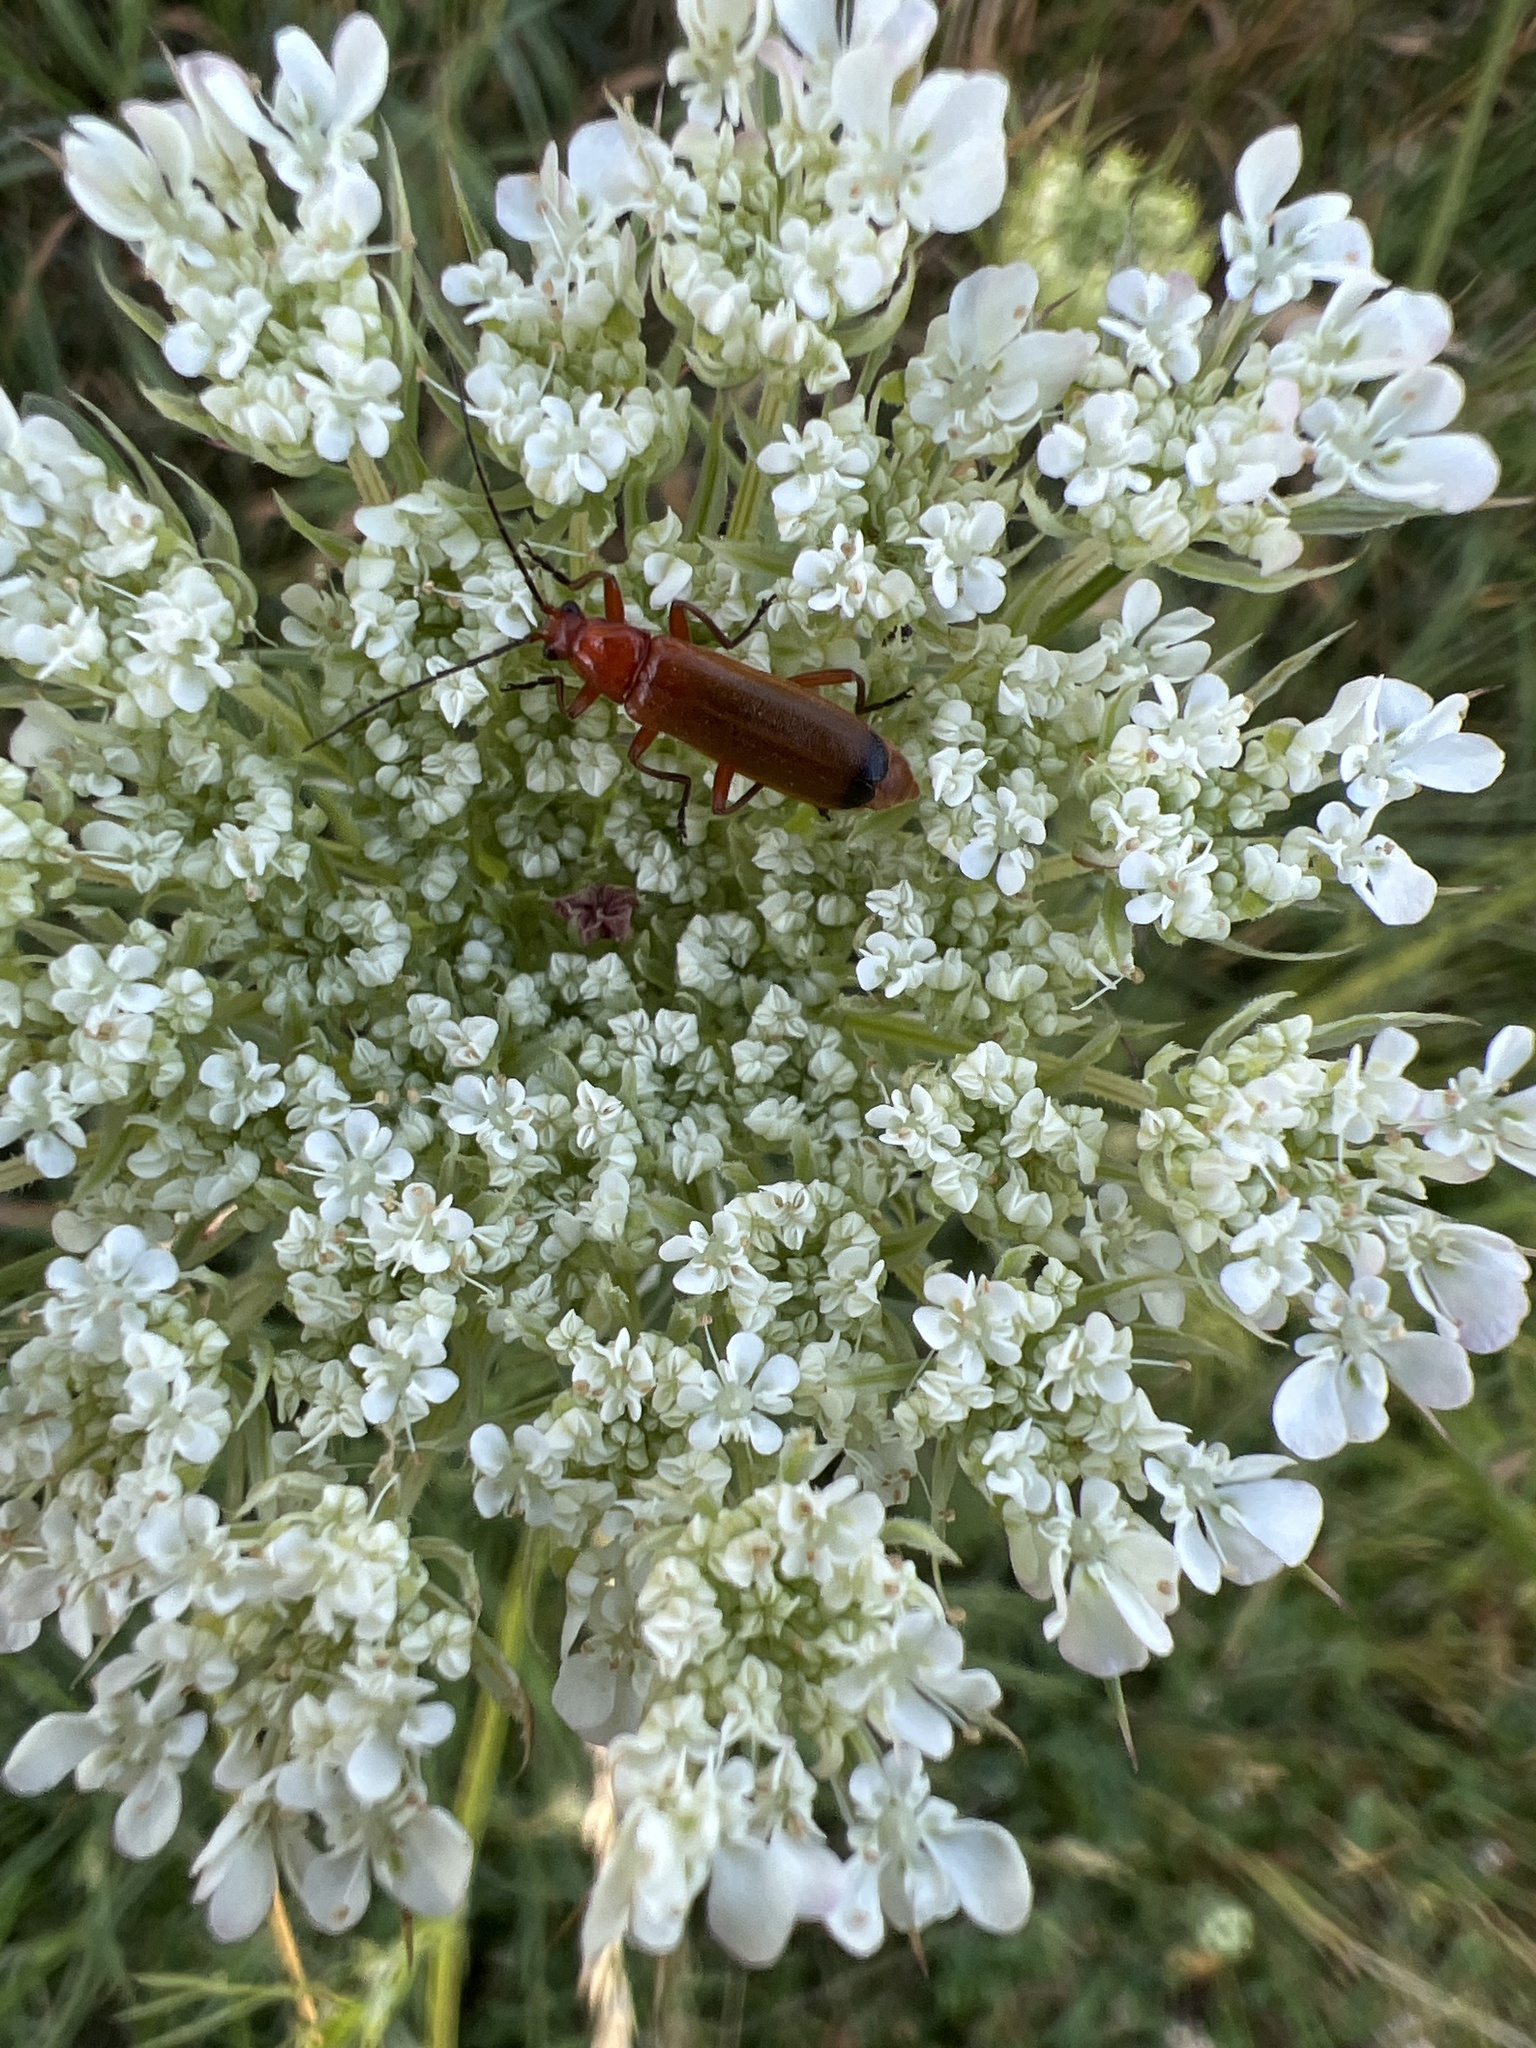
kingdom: Animalia
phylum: Arthropoda
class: Insecta
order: Coleoptera
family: Cantharidae
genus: Rhagonycha
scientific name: Rhagonycha fulva
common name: Common red soldier beetle
